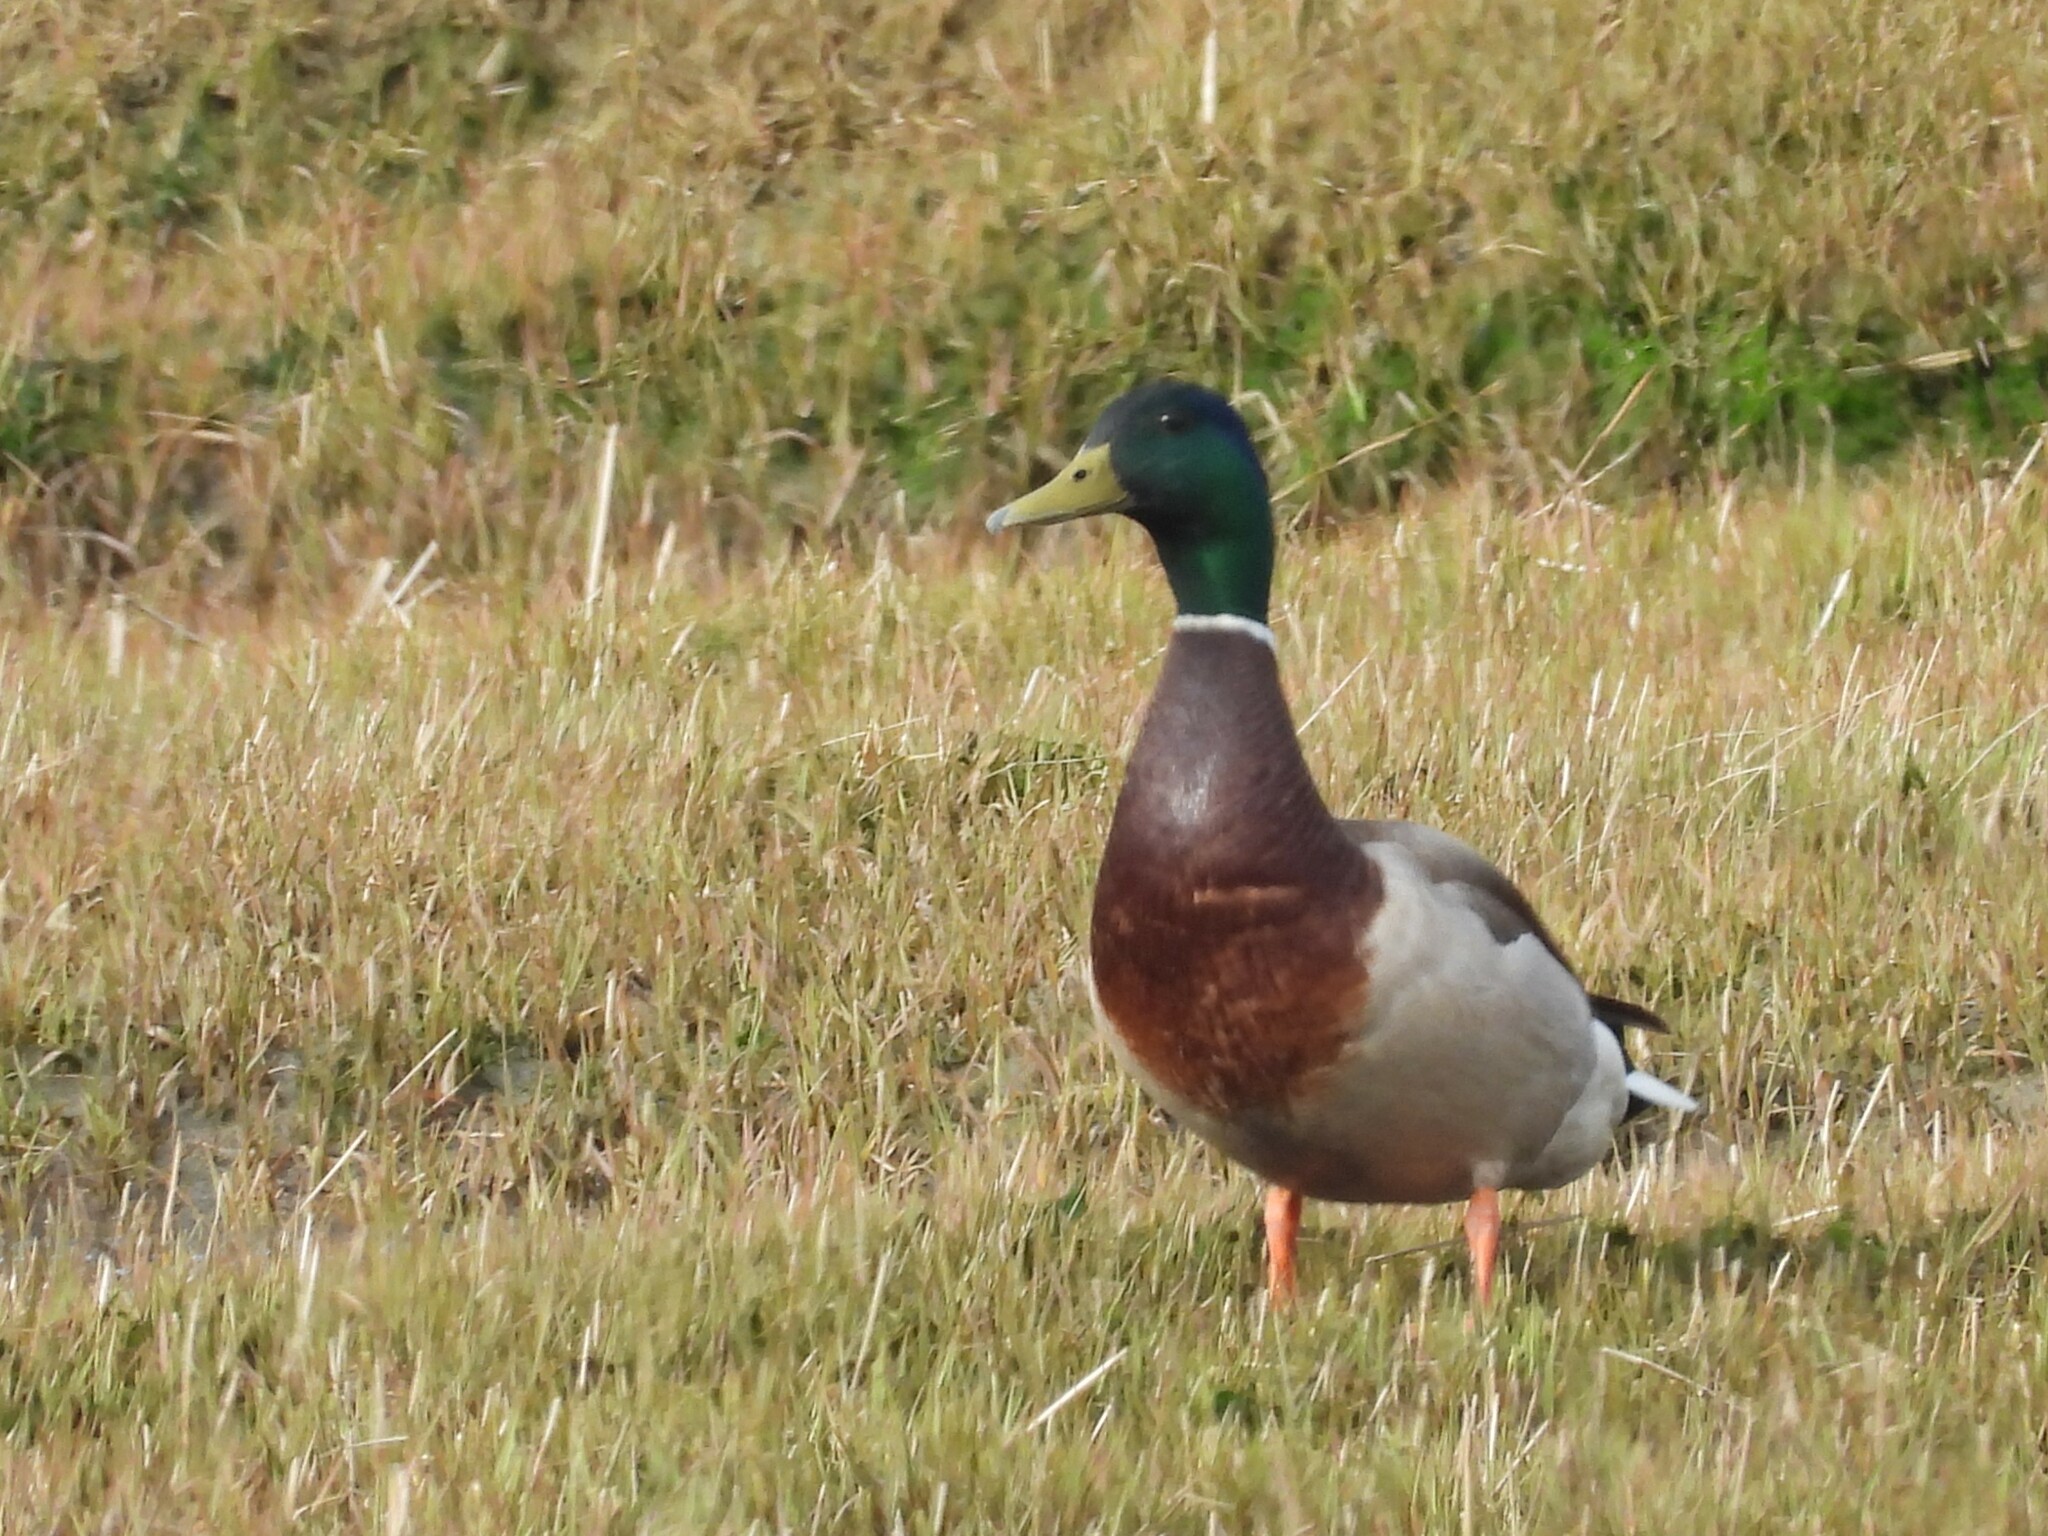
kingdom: Animalia
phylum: Chordata
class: Aves
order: Anseriformes
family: Anatidae
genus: Anas
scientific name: Anas platyrhynchos
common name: Mallard
